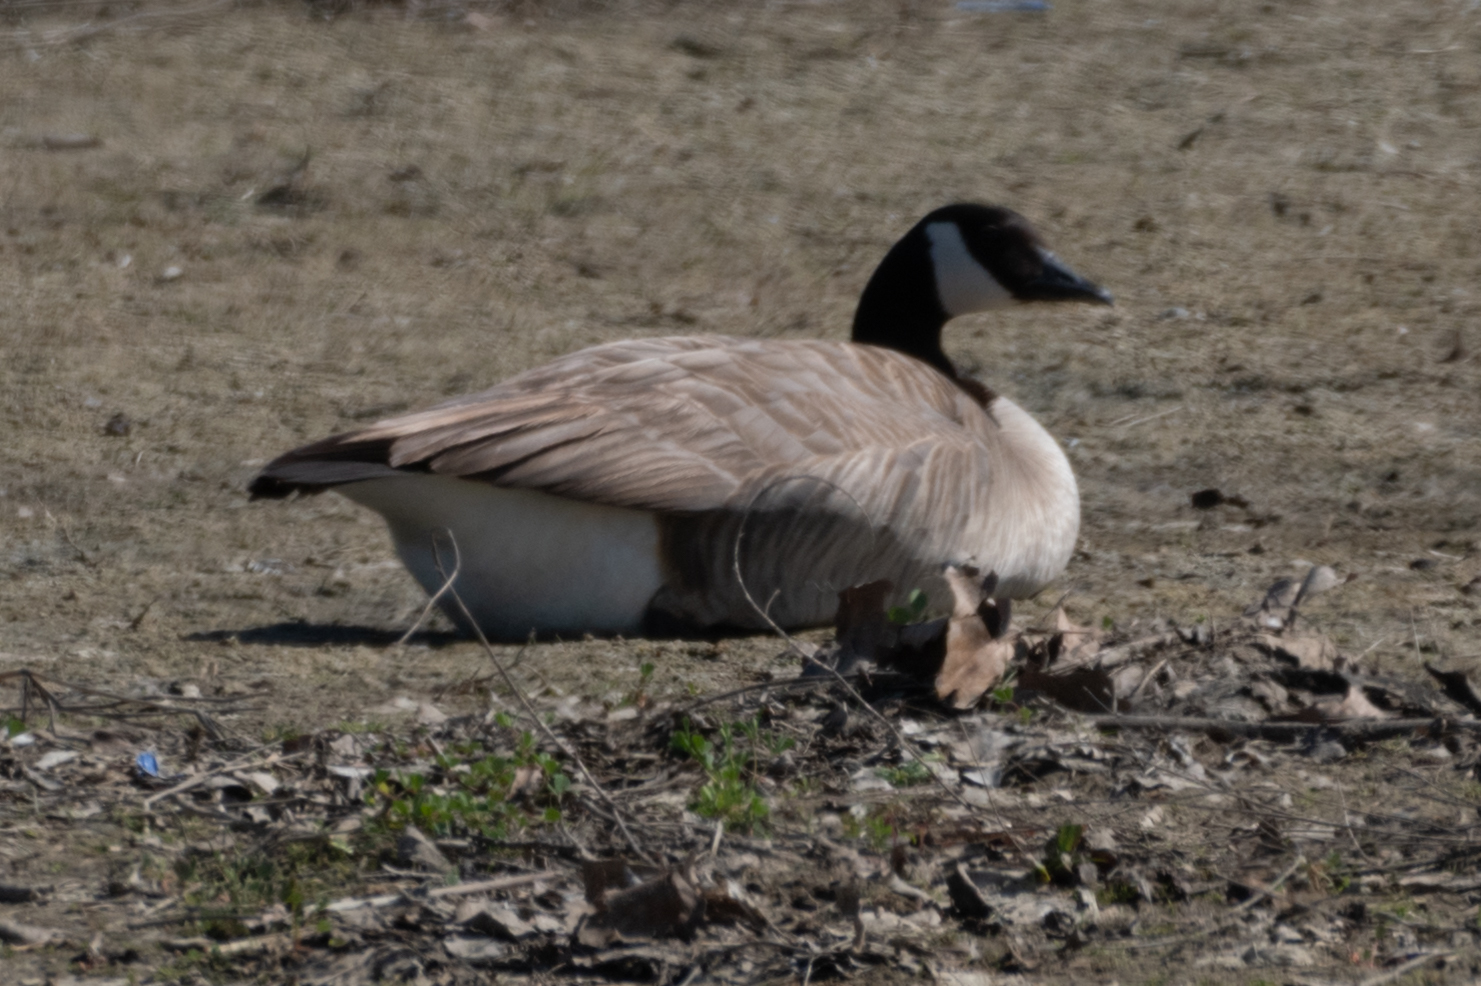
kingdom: Animalia
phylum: Chordata
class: Aves
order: Anseriformes
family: Anatidae
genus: Branta
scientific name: Branta canadensis
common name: Canada goose
